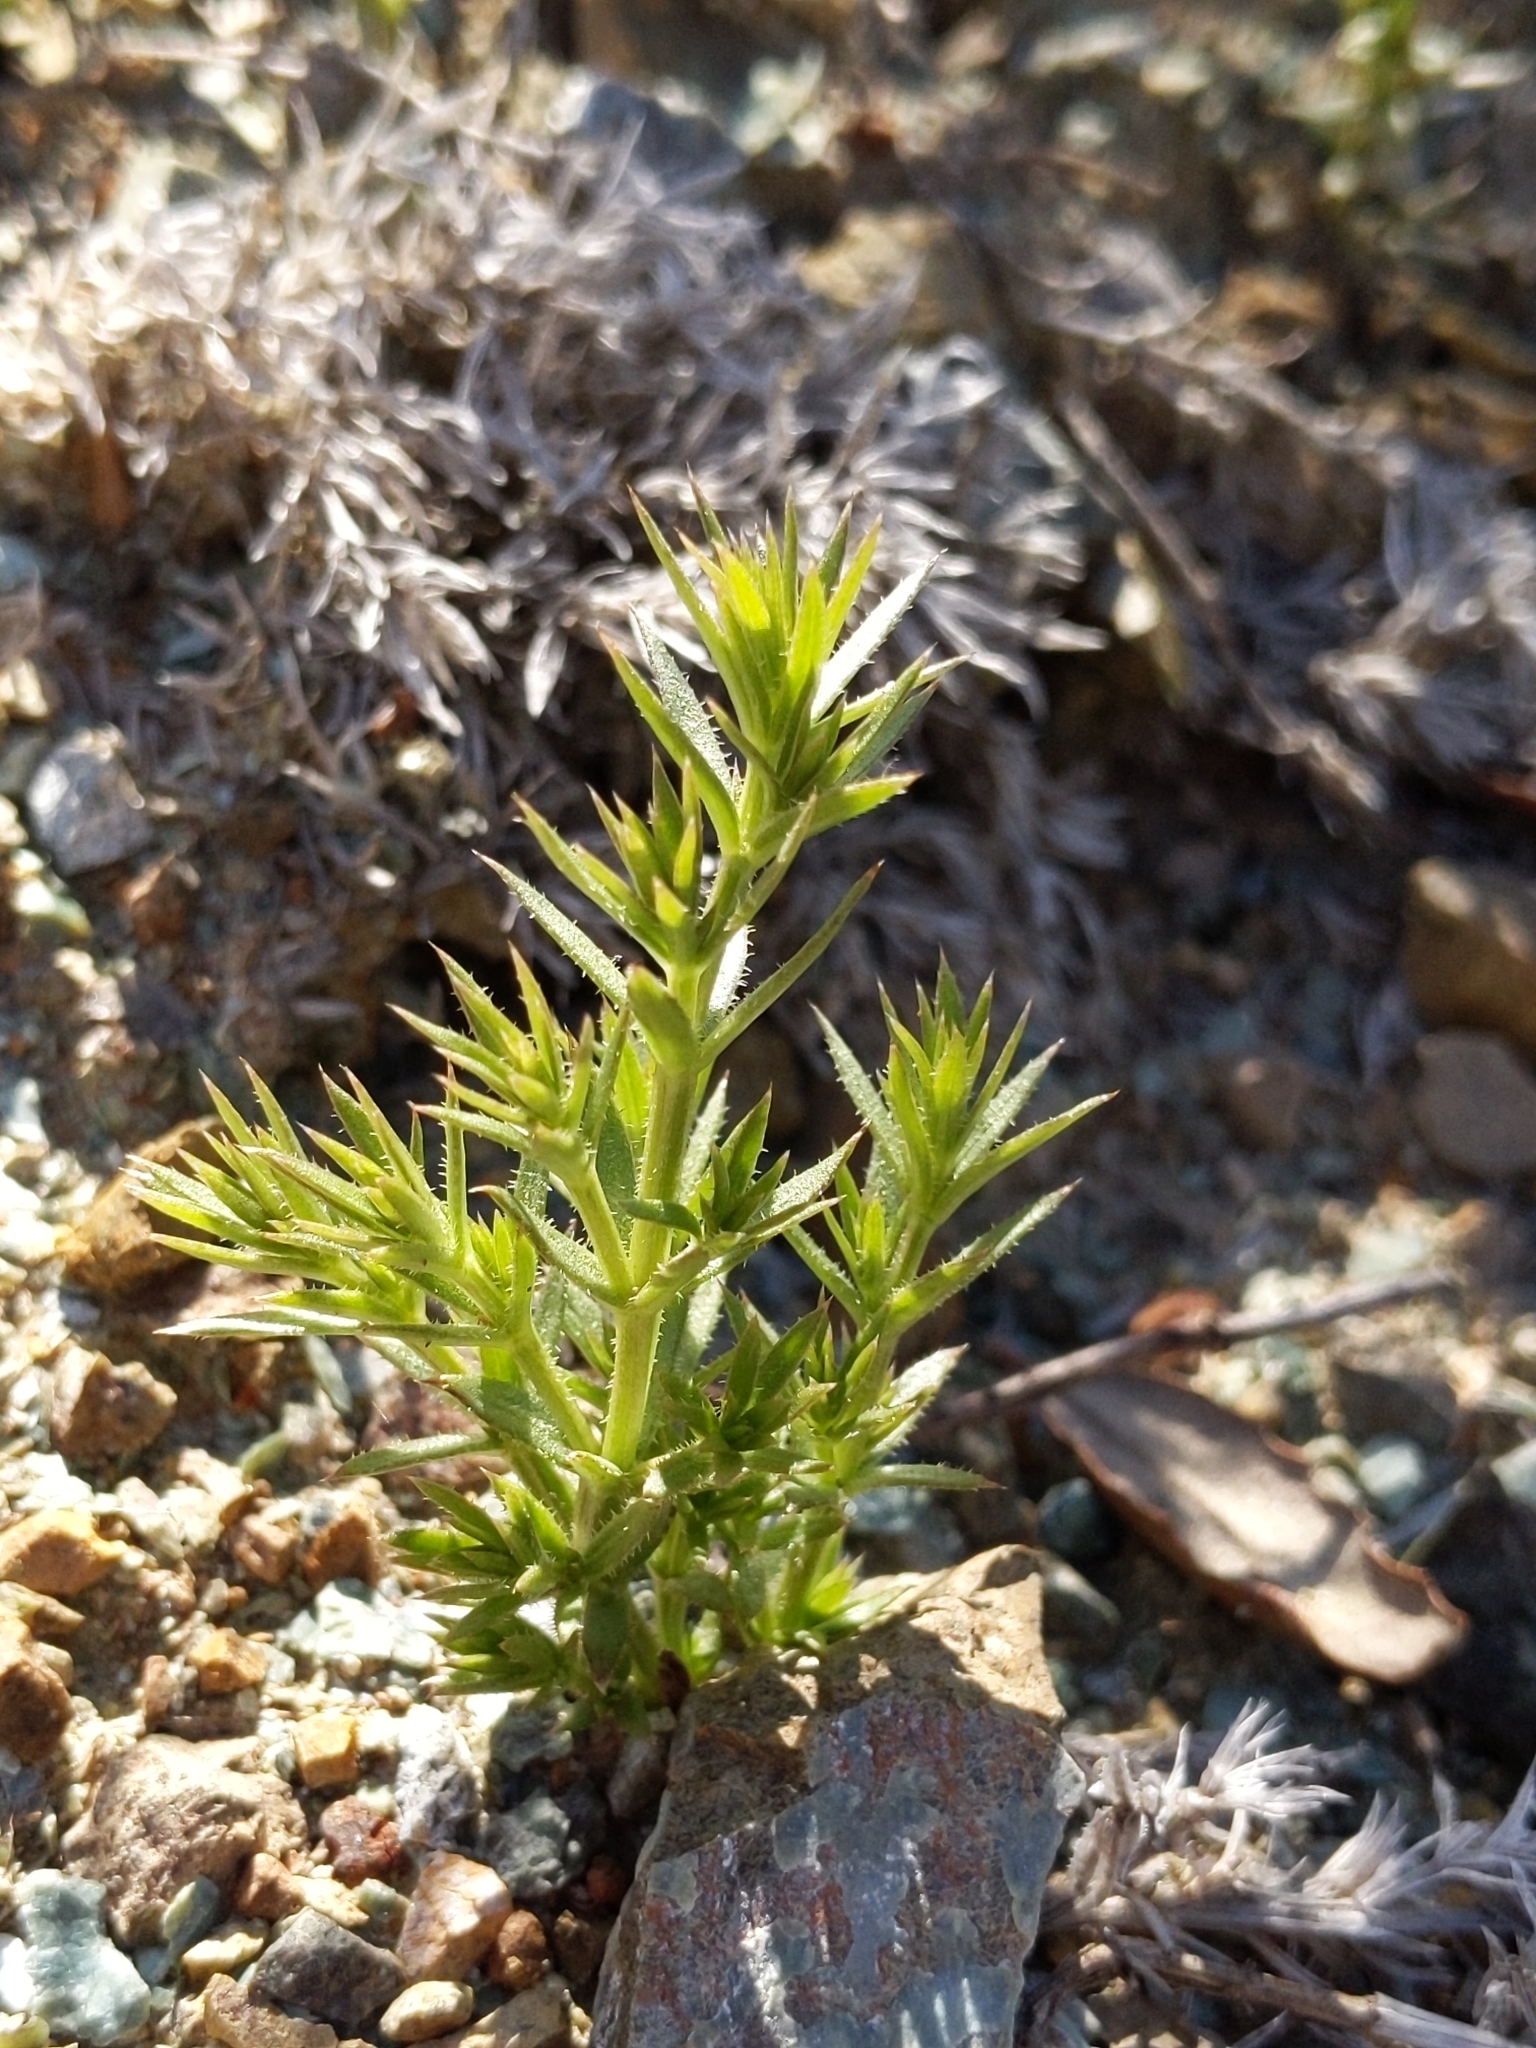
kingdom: Plantae
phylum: Tracheophyta
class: Magnoliopsida
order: Gentianales
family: Rubiaceae
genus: Galium
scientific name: Galium andrewsii
